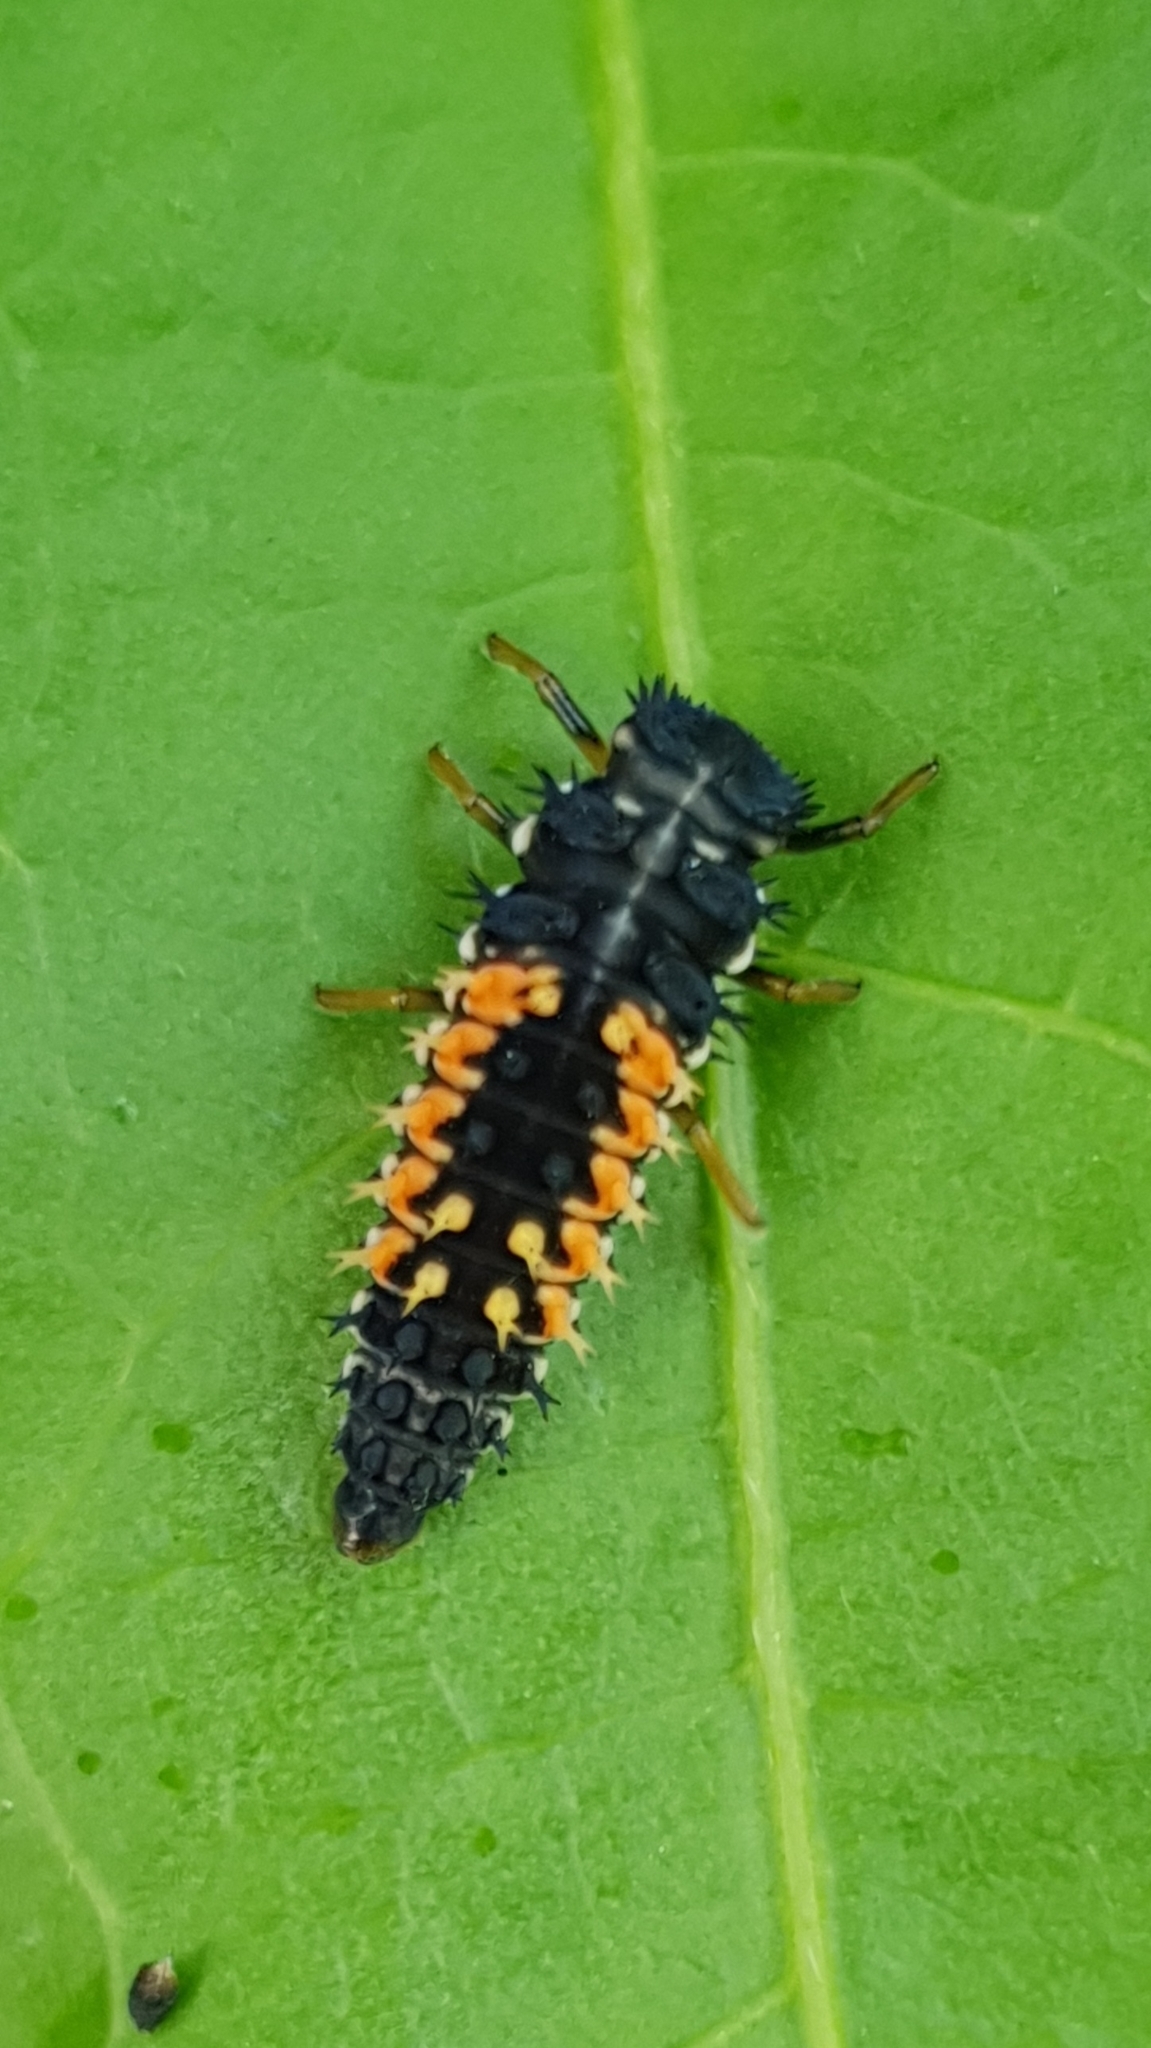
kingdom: Animalia
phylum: Arthropoda
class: Insecta
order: Coleoptera
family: Coccinellidae
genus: Harmonia
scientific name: Harmonia axyridis
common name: Harlequin ladybird
